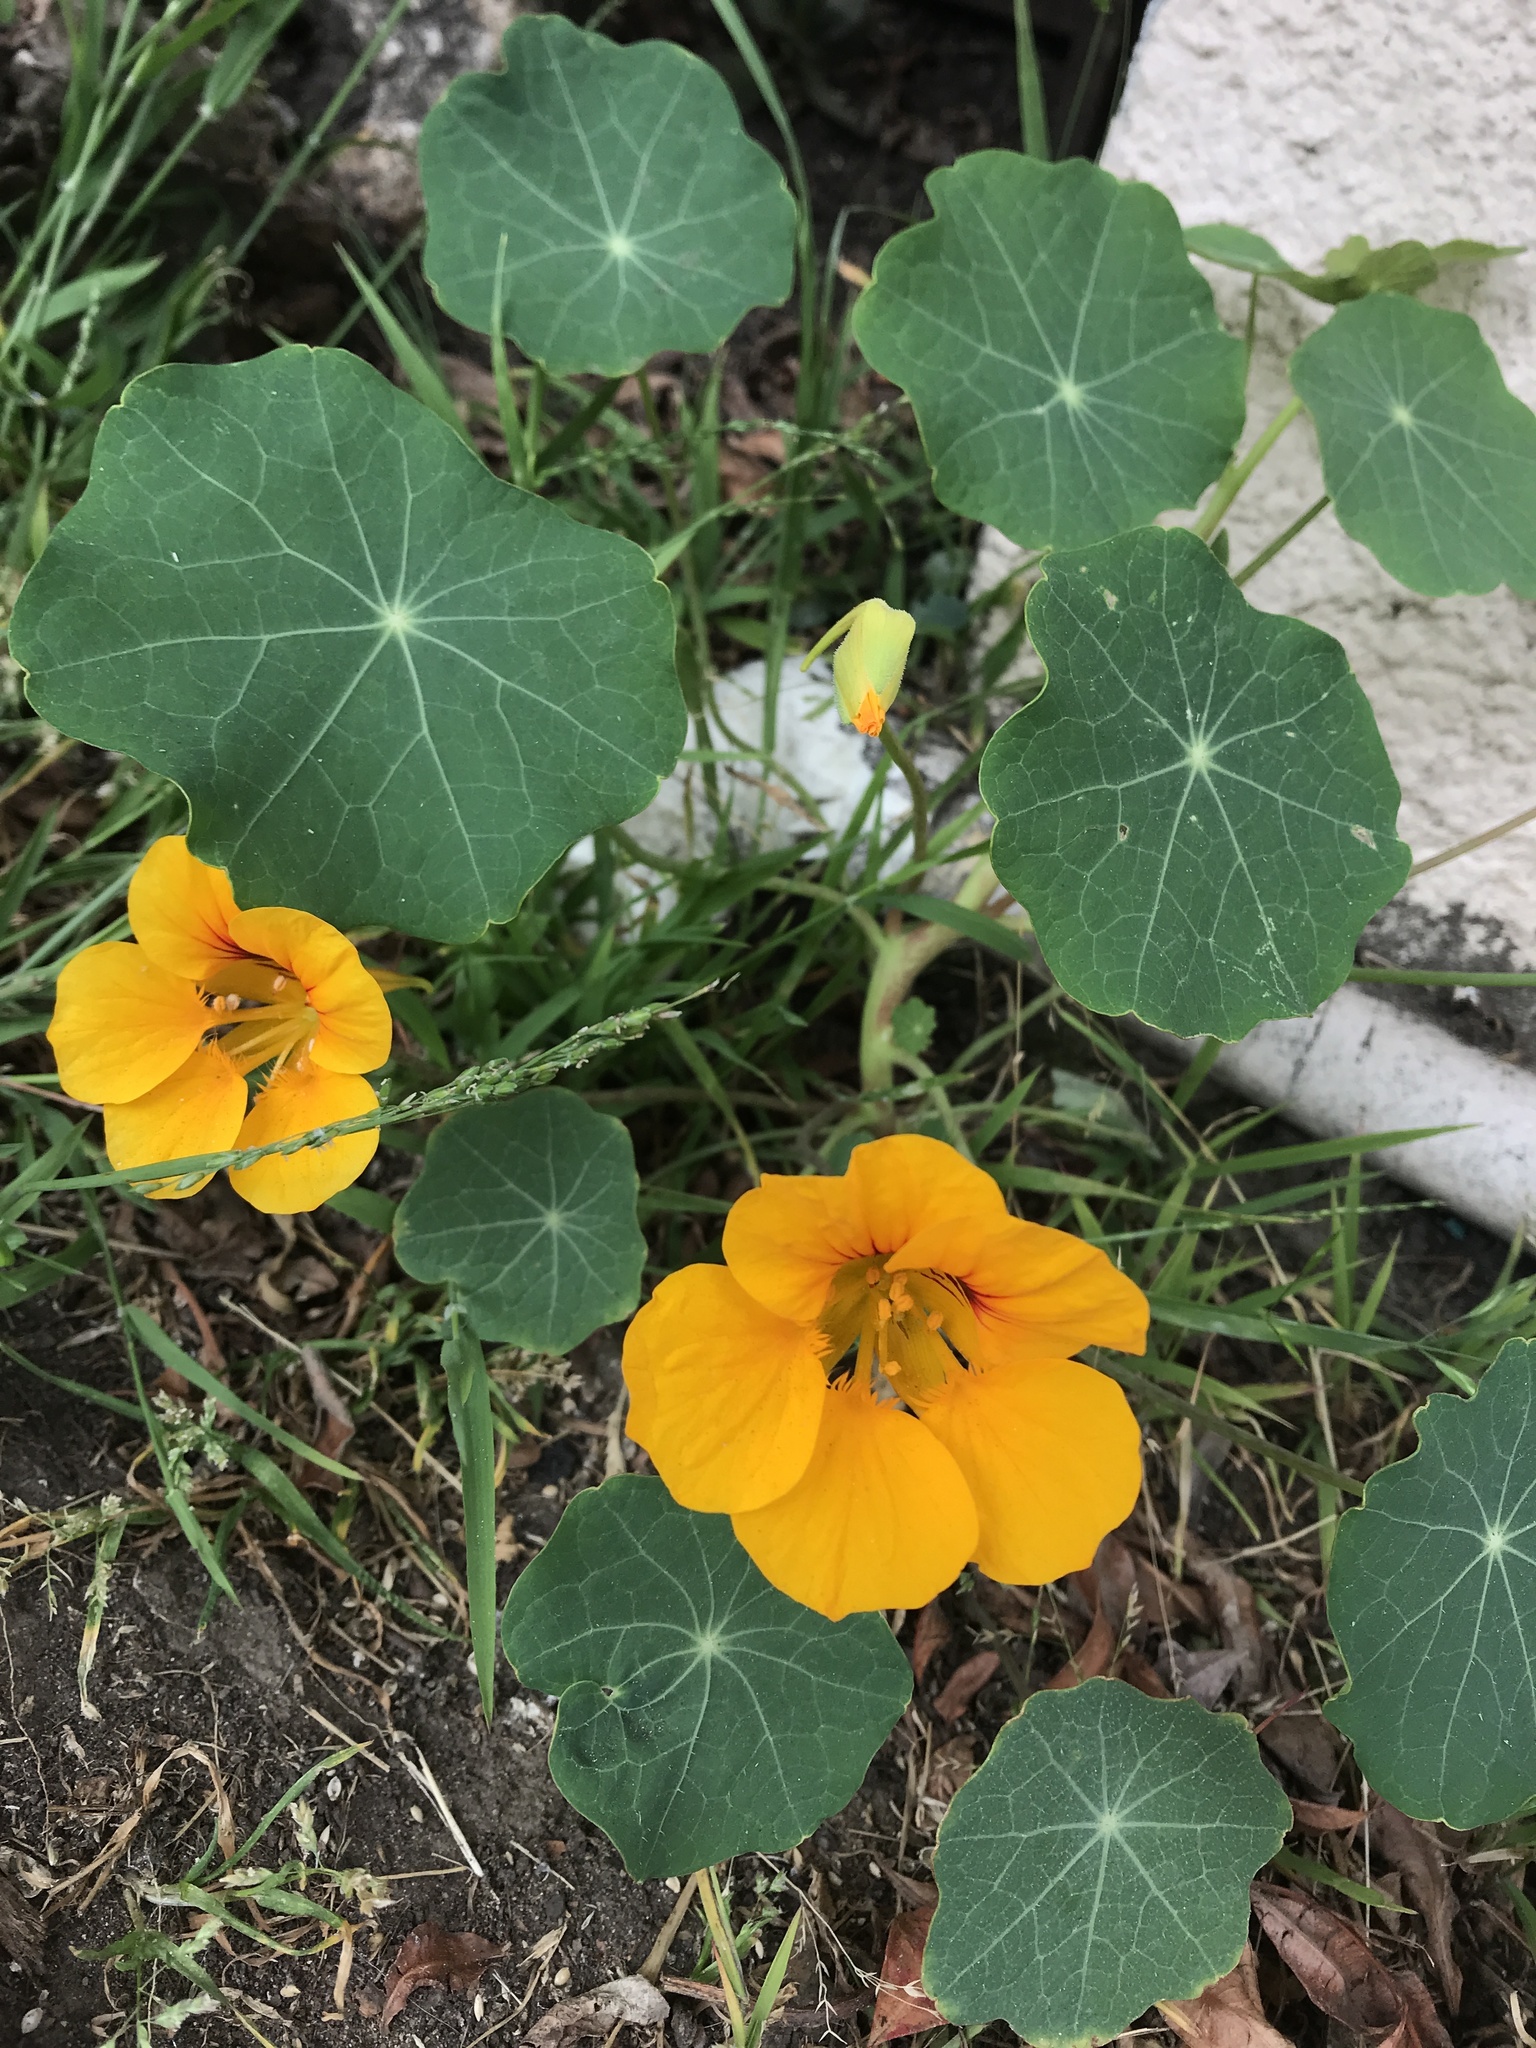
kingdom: Plantae
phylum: Tracheophyta
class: Magnoliopsida
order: Brassicales
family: Tropaeolaceae
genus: Tropaeolum
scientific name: Tropaeolum majus
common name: Nasturtium
